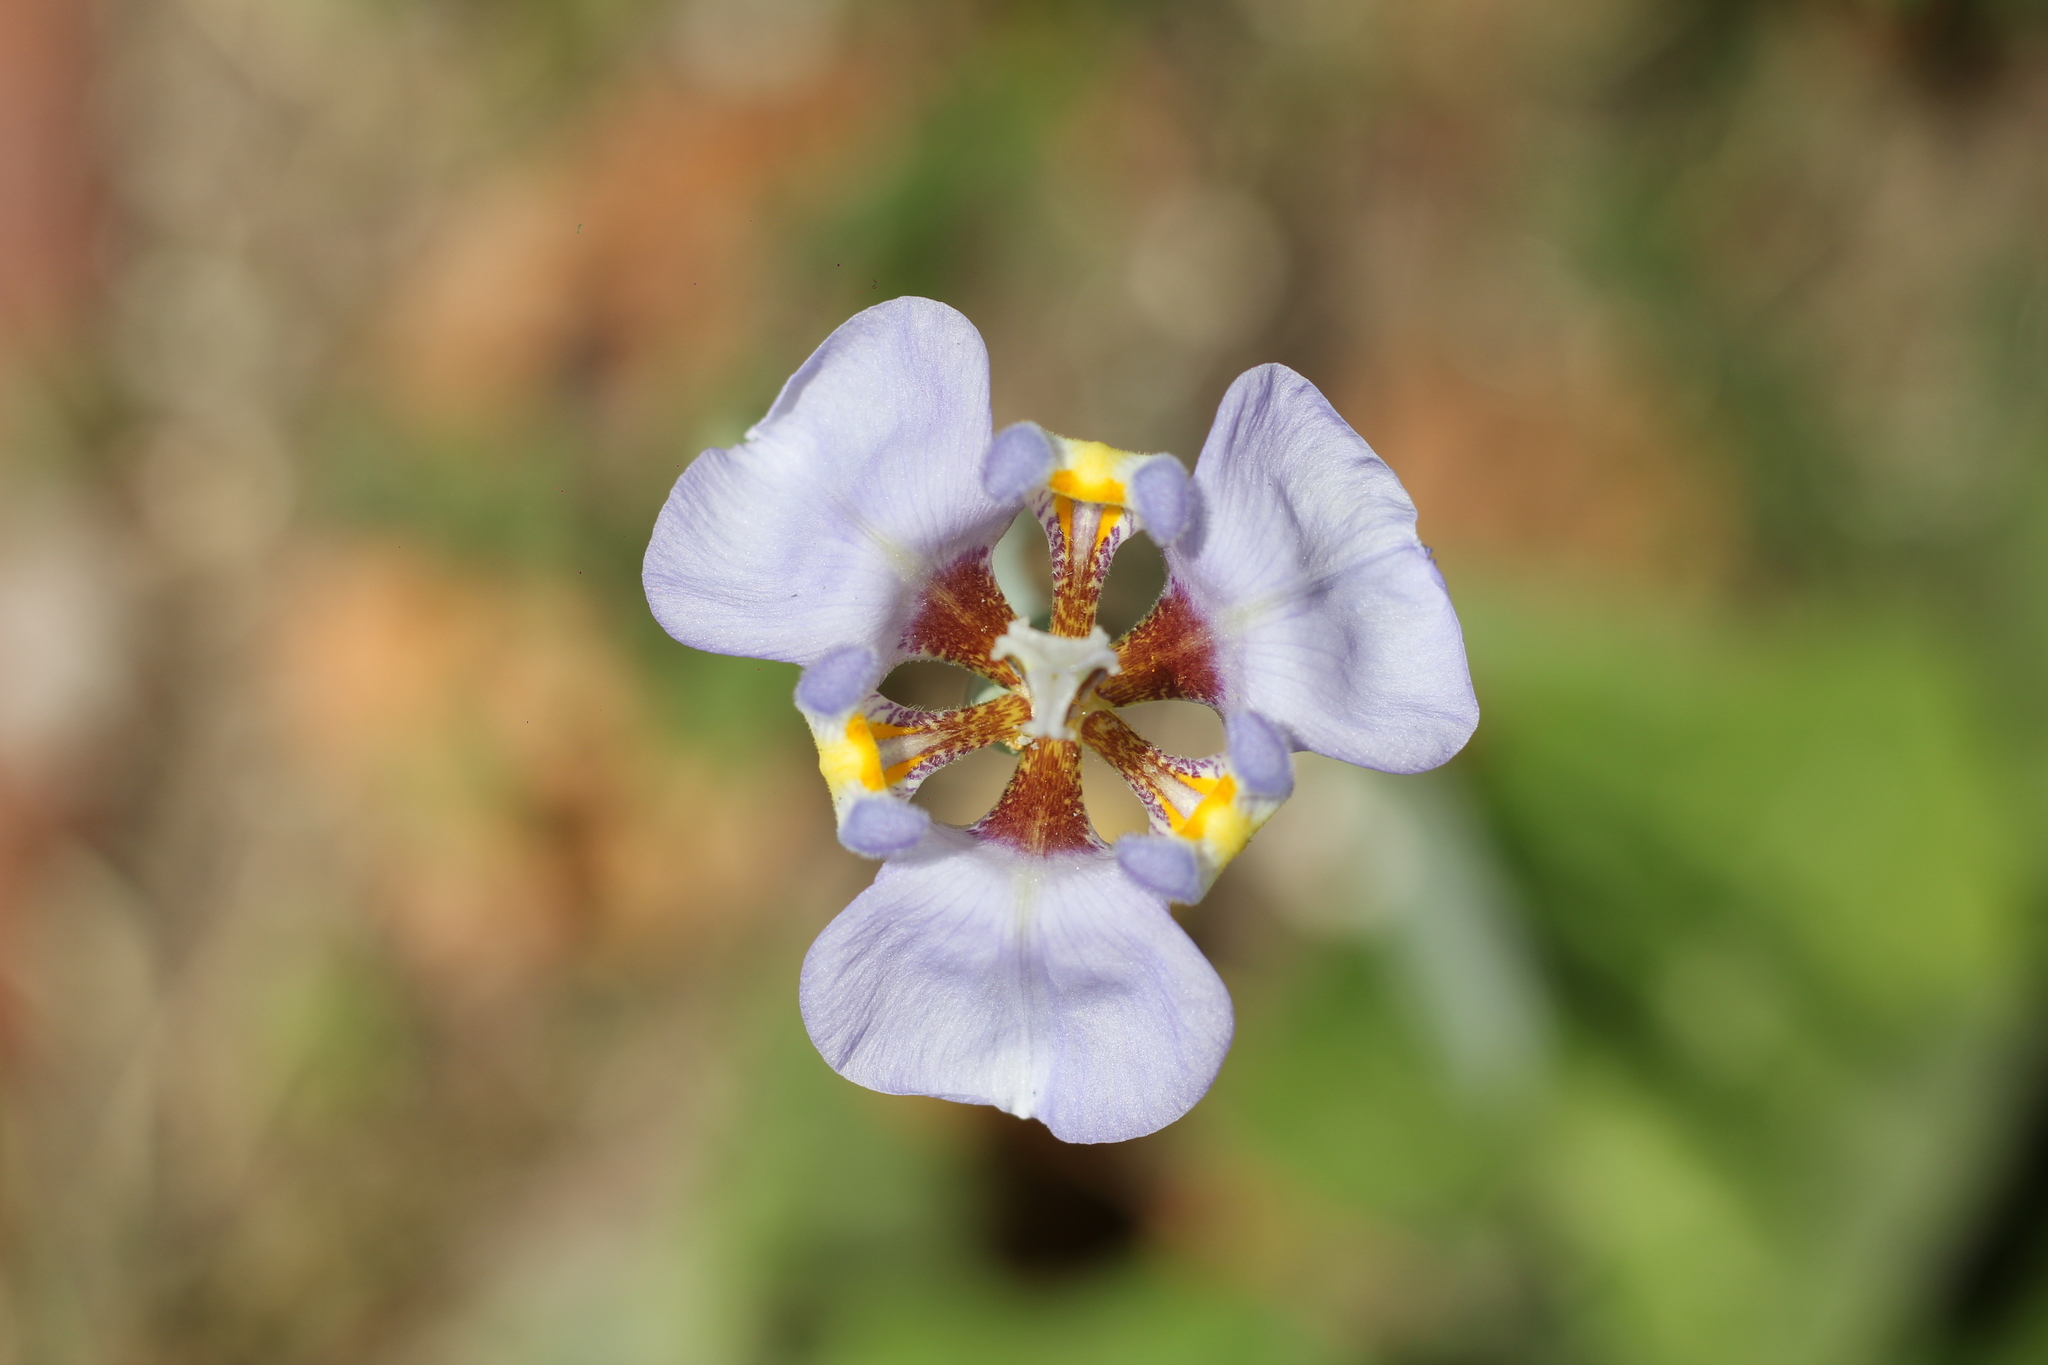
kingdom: Plantae
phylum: Tracheophyta
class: Liliopsida
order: Asparagales
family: Iridaceae
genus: Phalocallis
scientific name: Phalocallis coelestis
